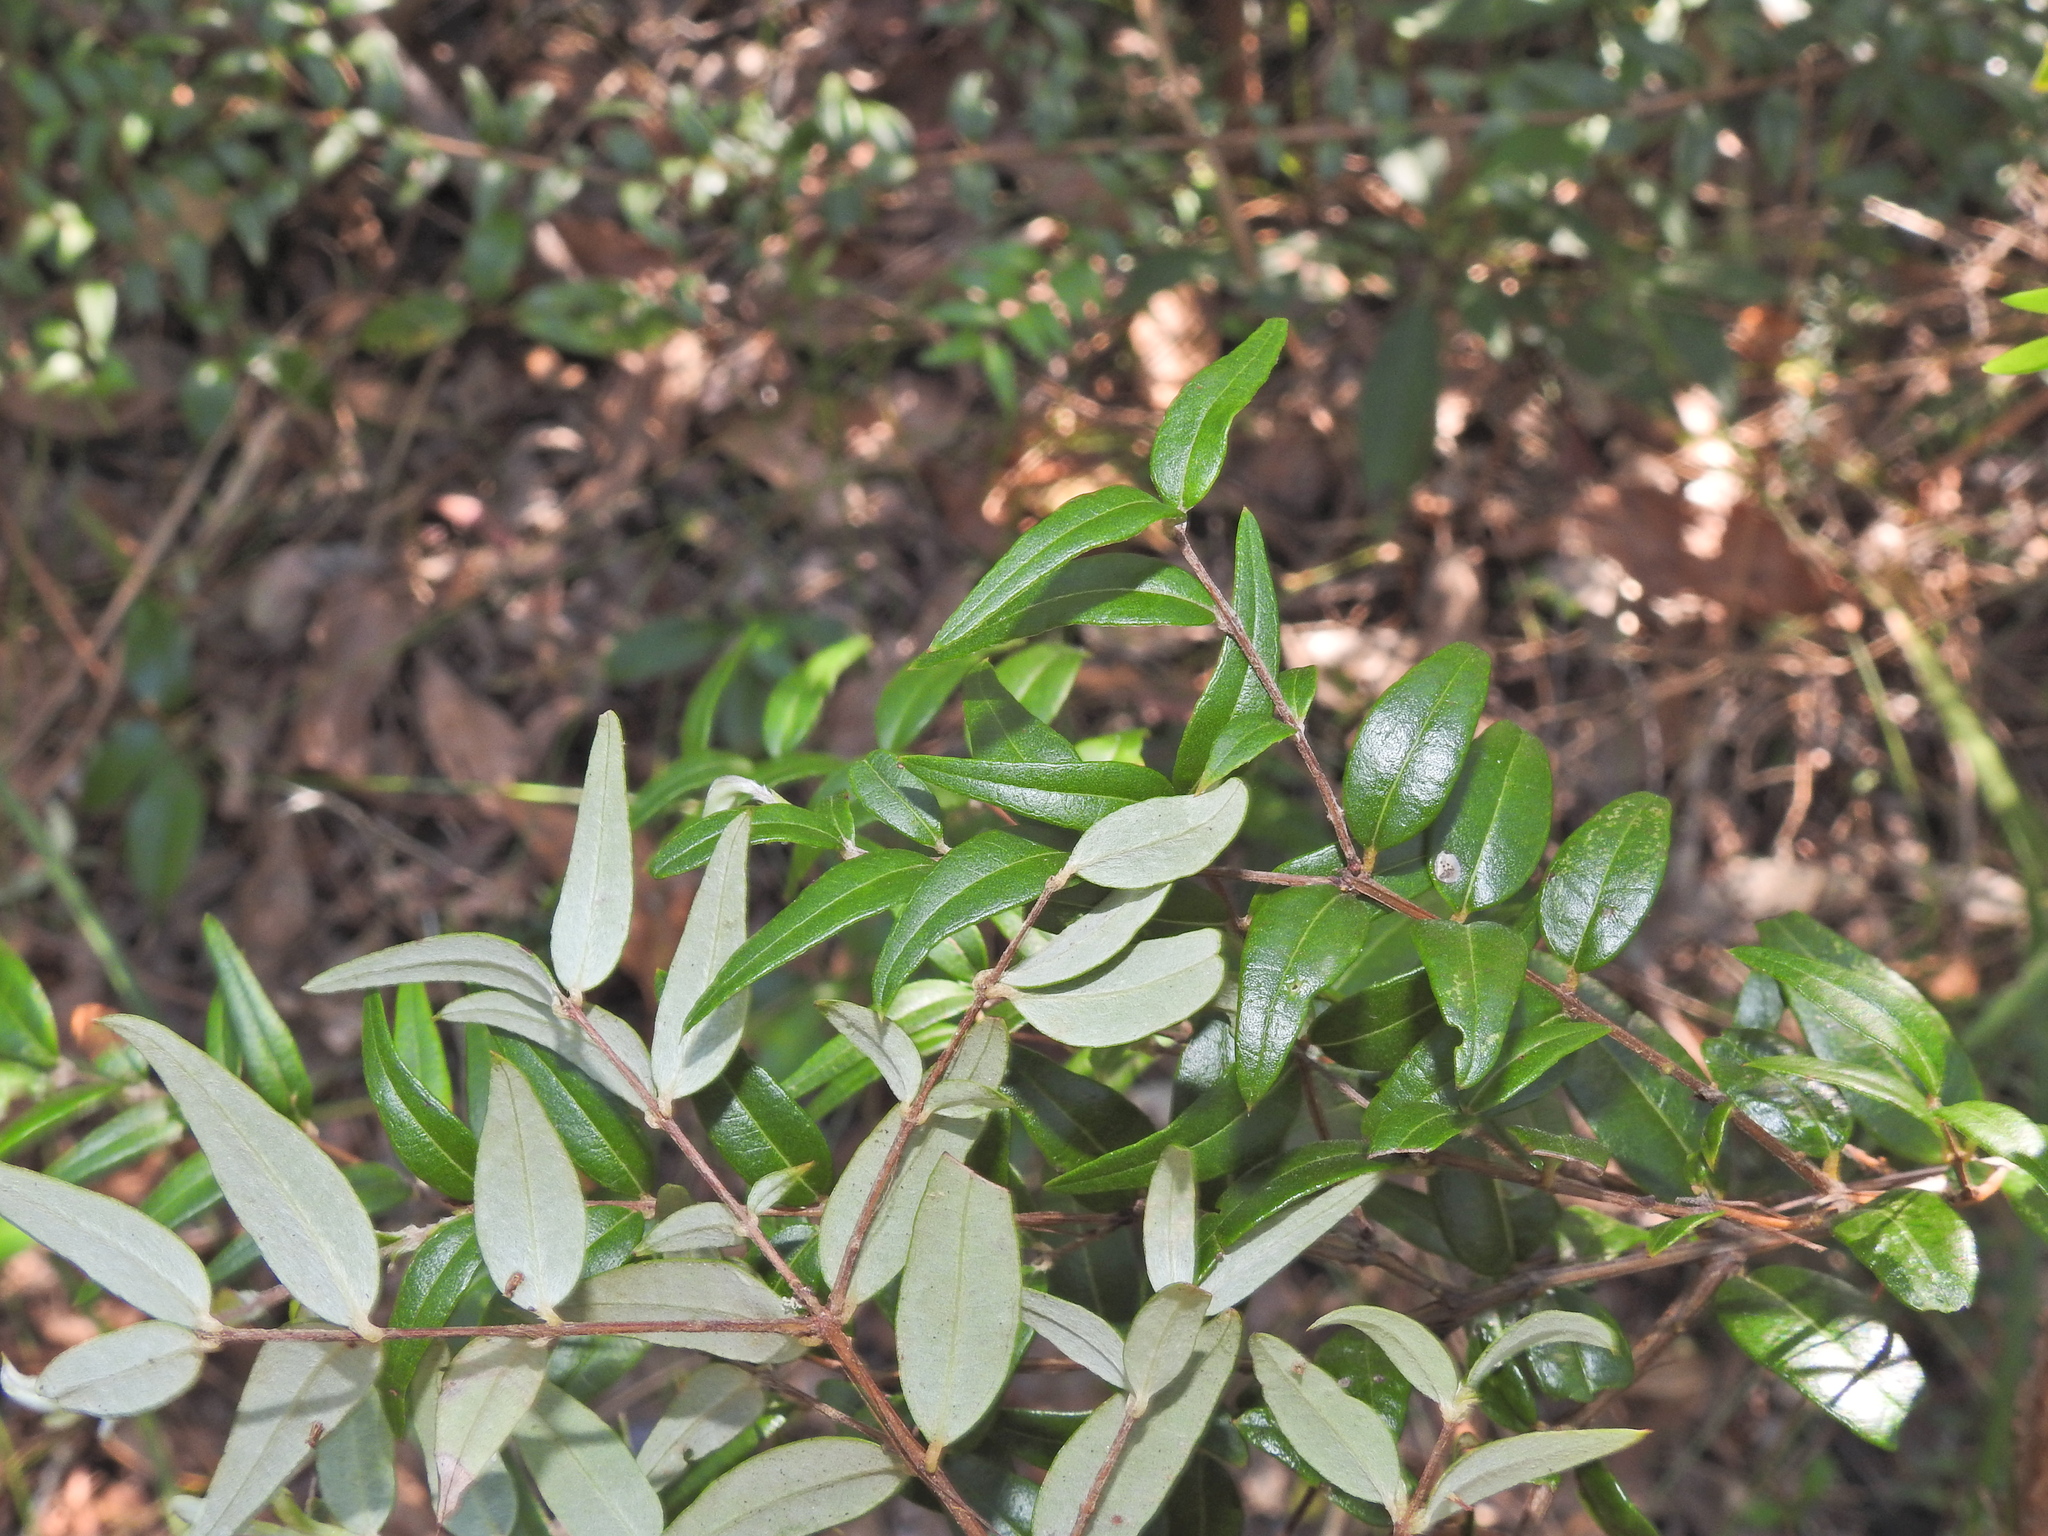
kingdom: Plantae
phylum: Tracheophyta
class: Magnoliopsida
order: Myrtales
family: Myrtaceae
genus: Austromyrtus
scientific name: Austromyrtus dulcis
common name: Migden-berry
